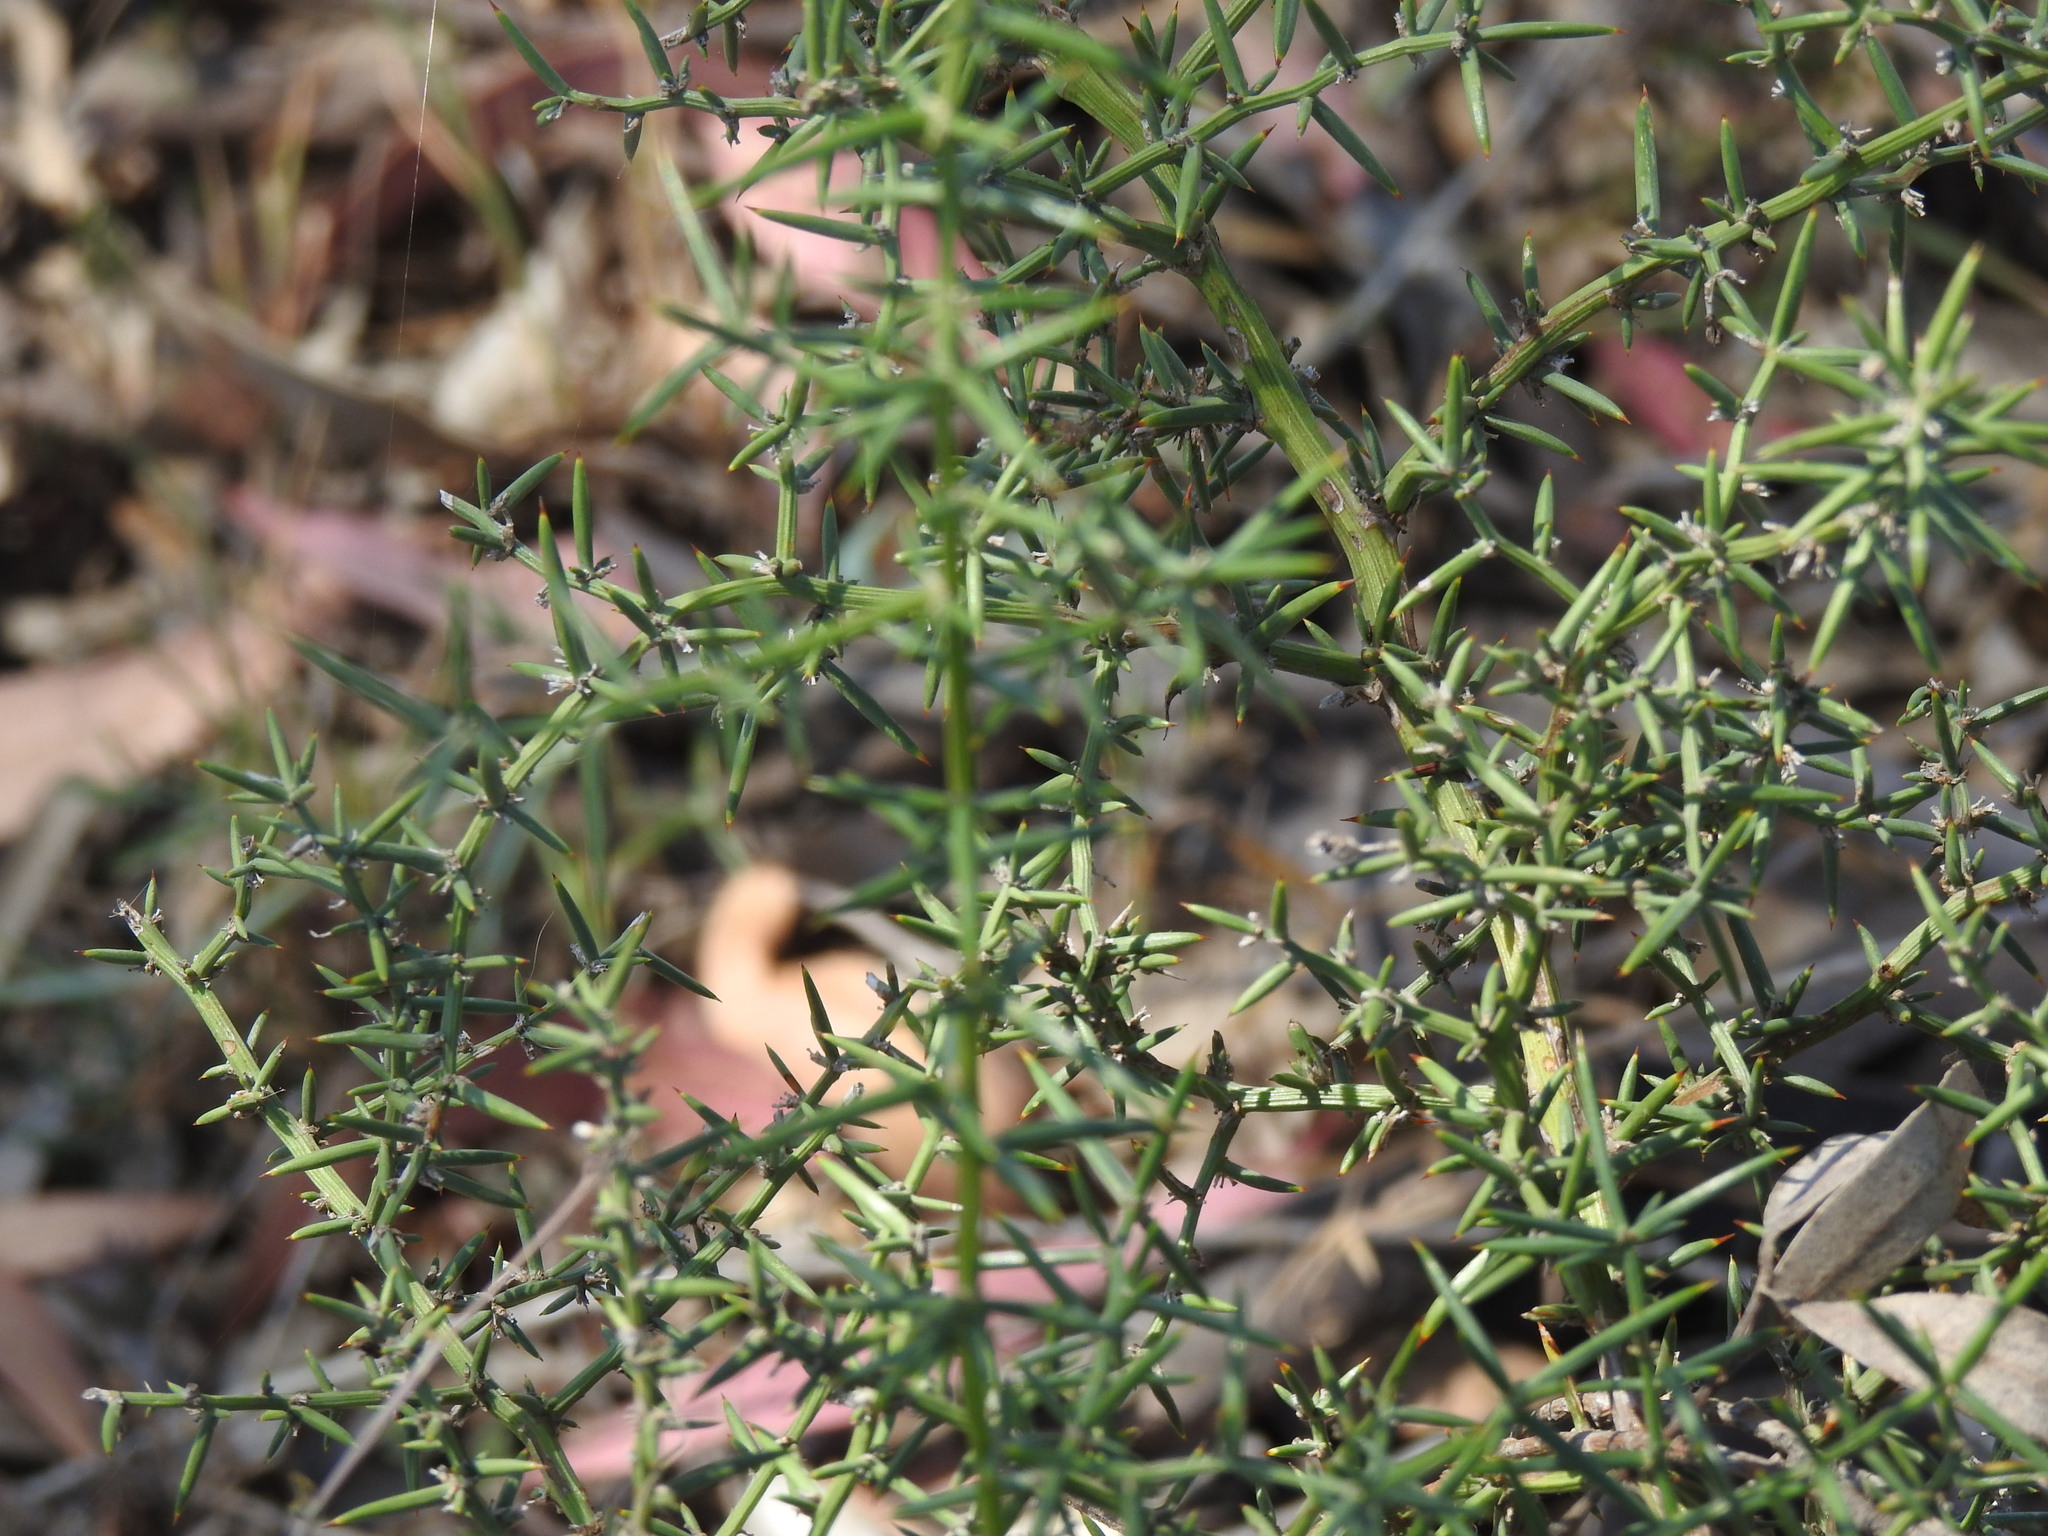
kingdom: Plantae
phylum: Tracheophyta
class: Liliopsida
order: Asparagales
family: Asparagaceae
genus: Asparagus
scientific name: Asparagus aphyllus
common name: Mediterranean asparagus
